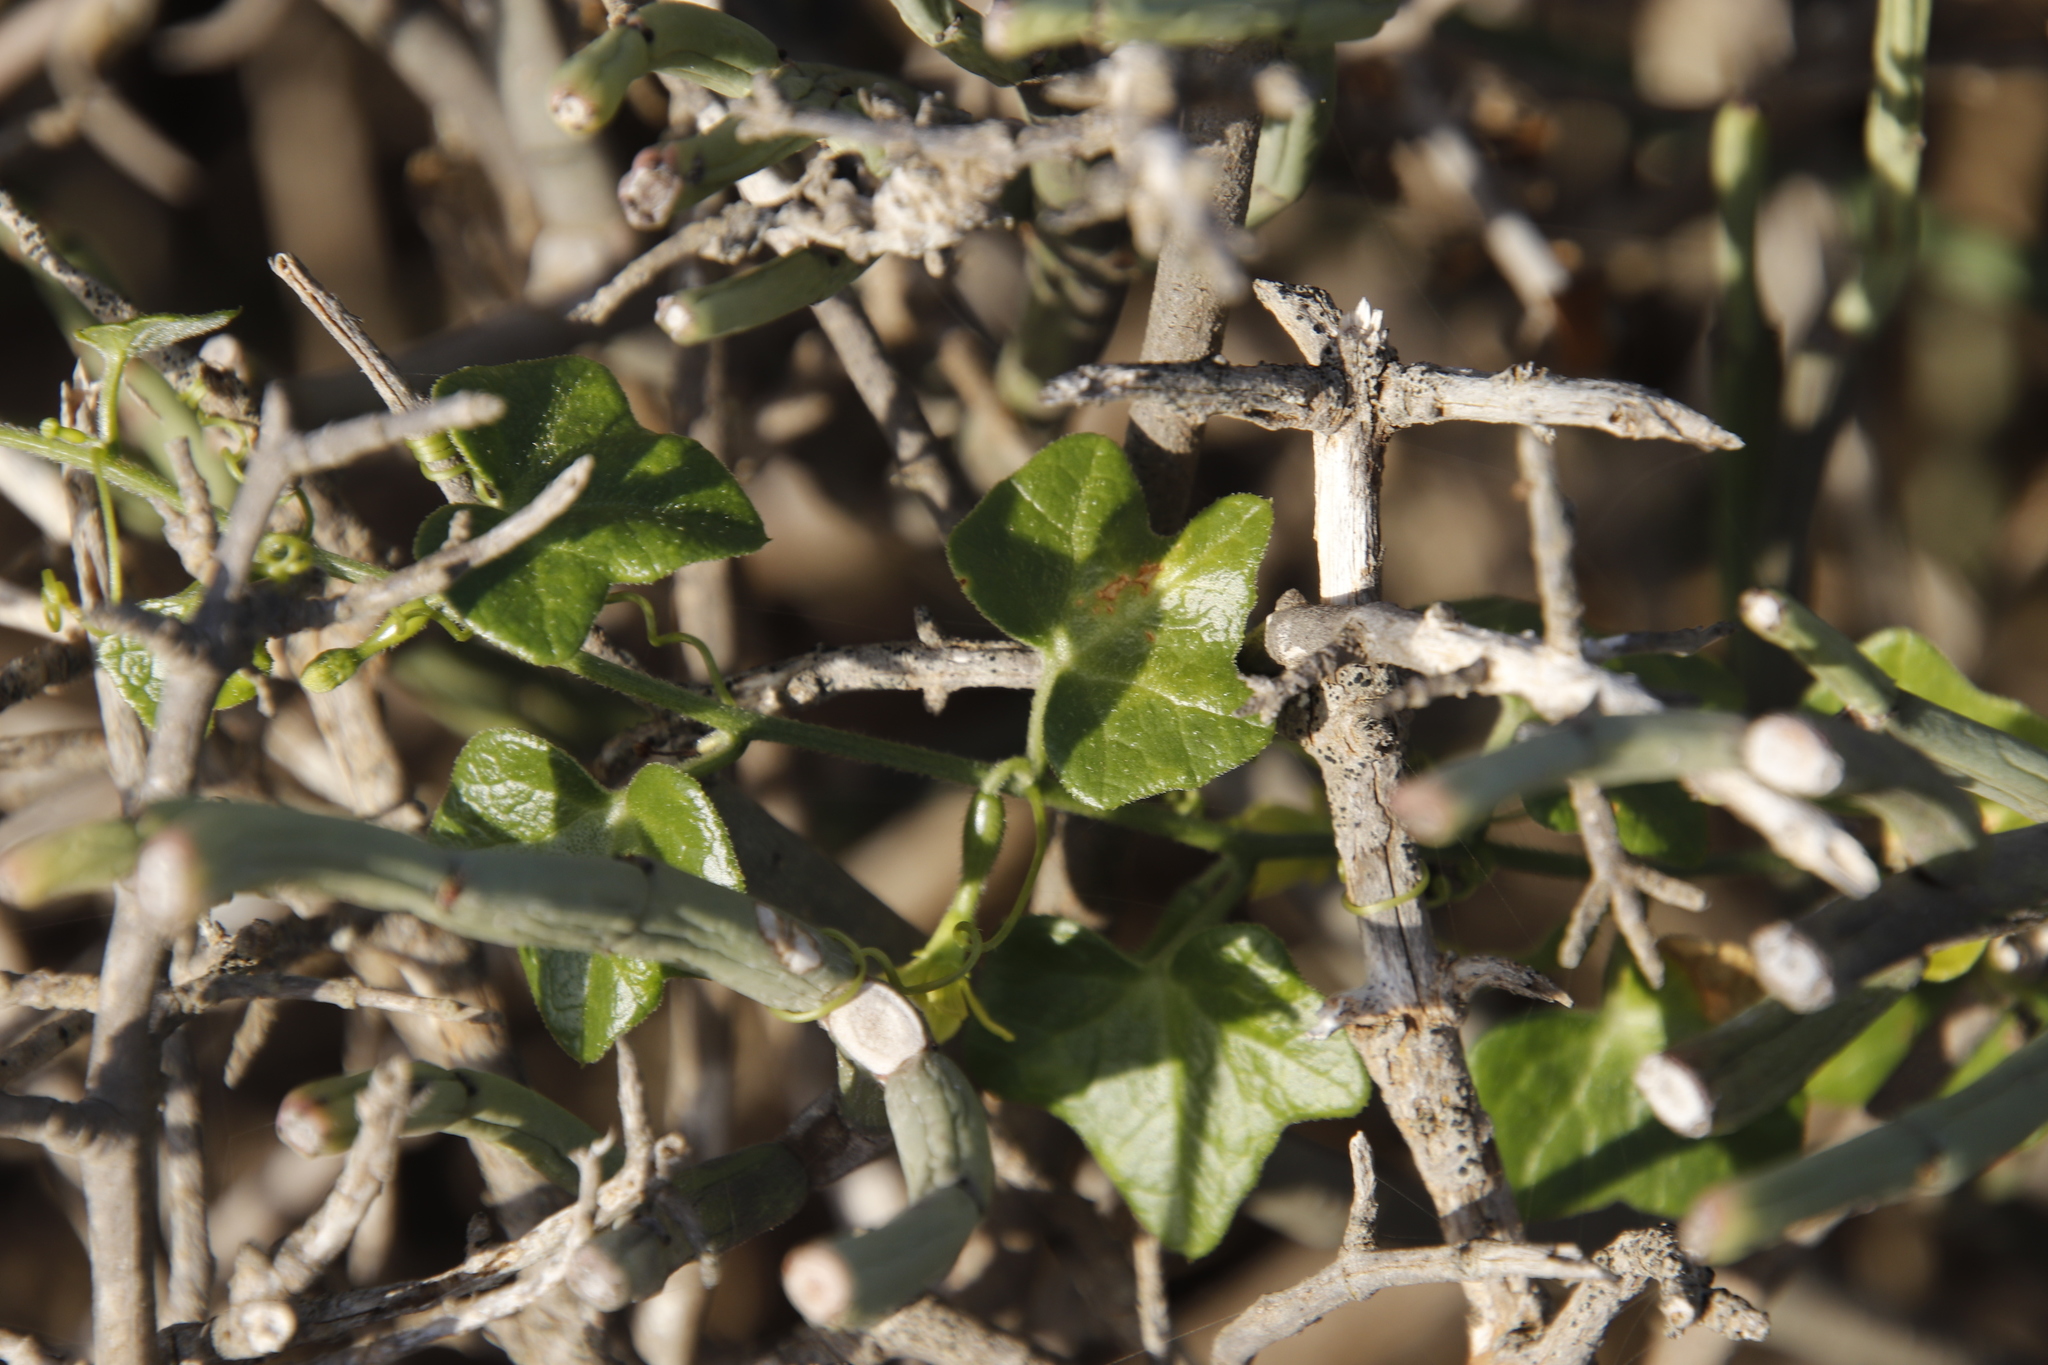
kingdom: Plantae
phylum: Tracheophyta
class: Magnoliopsida
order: Cucurbitales
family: Cucurbitaceae
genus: Kedrostis
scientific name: Kedrostis nana
